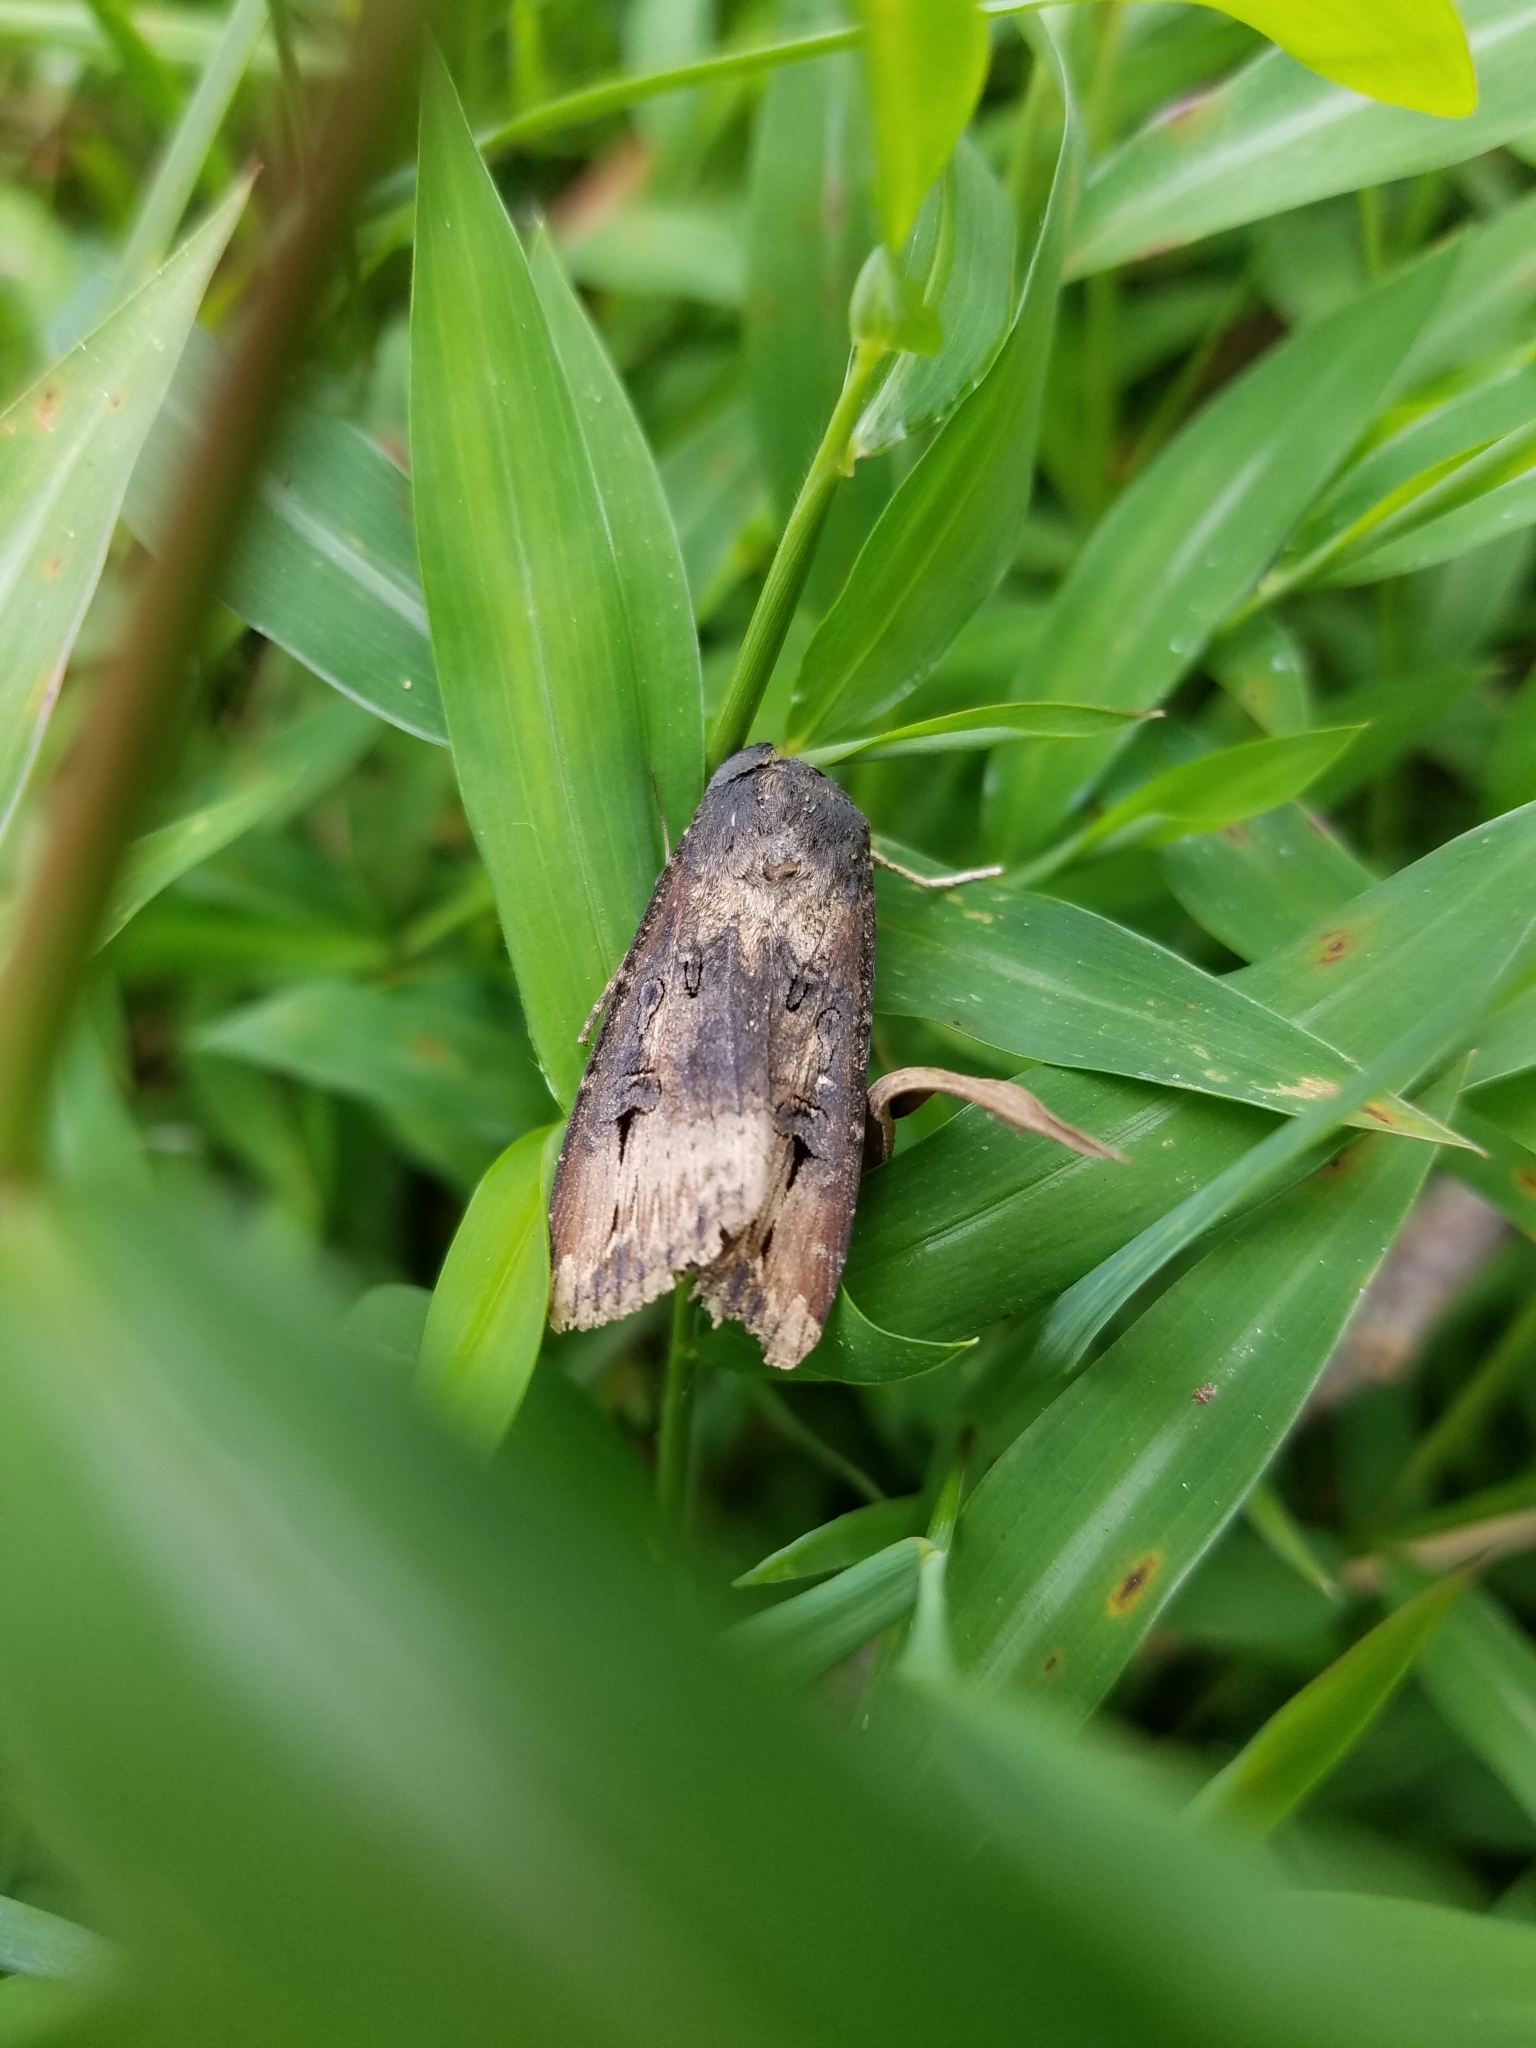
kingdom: Animalia
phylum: Arthropoda
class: Insecta
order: Lepidoptera
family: Noctuidae
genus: Agrotis
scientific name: Agrotis ipsilon
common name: Dark sword-grass
